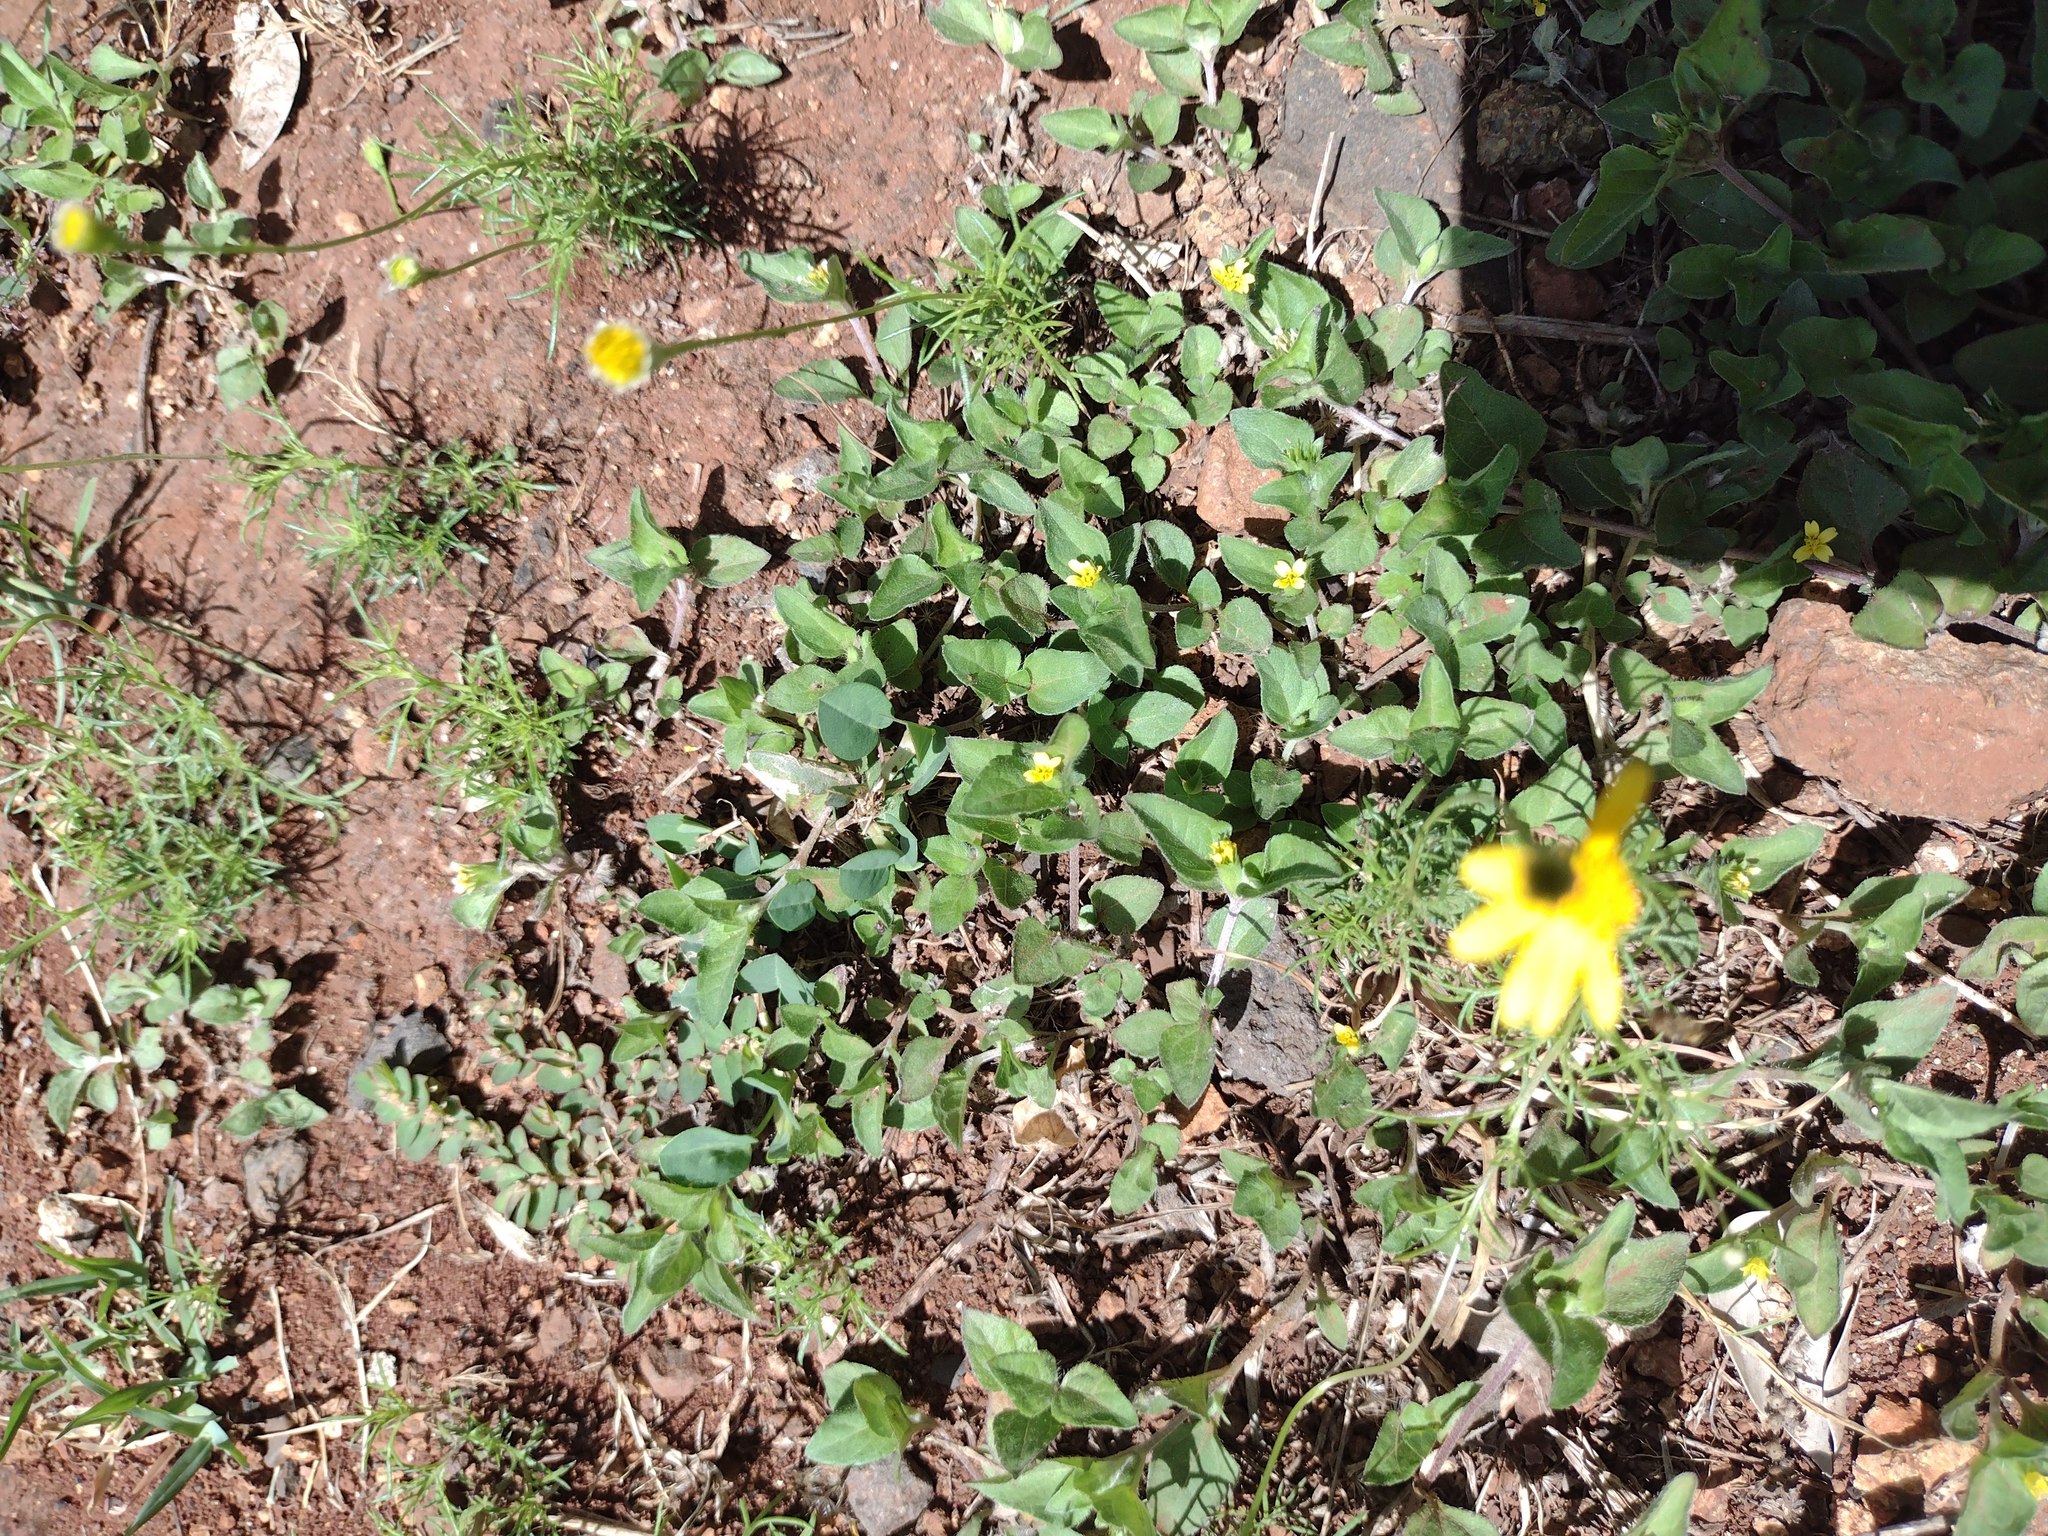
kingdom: Plantae
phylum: Tracheophyta
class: Magnoliopsida
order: Asterales
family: Asteraceae
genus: Calyptocarpus
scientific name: Calyptocarpus vialis
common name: Straggler daisy
